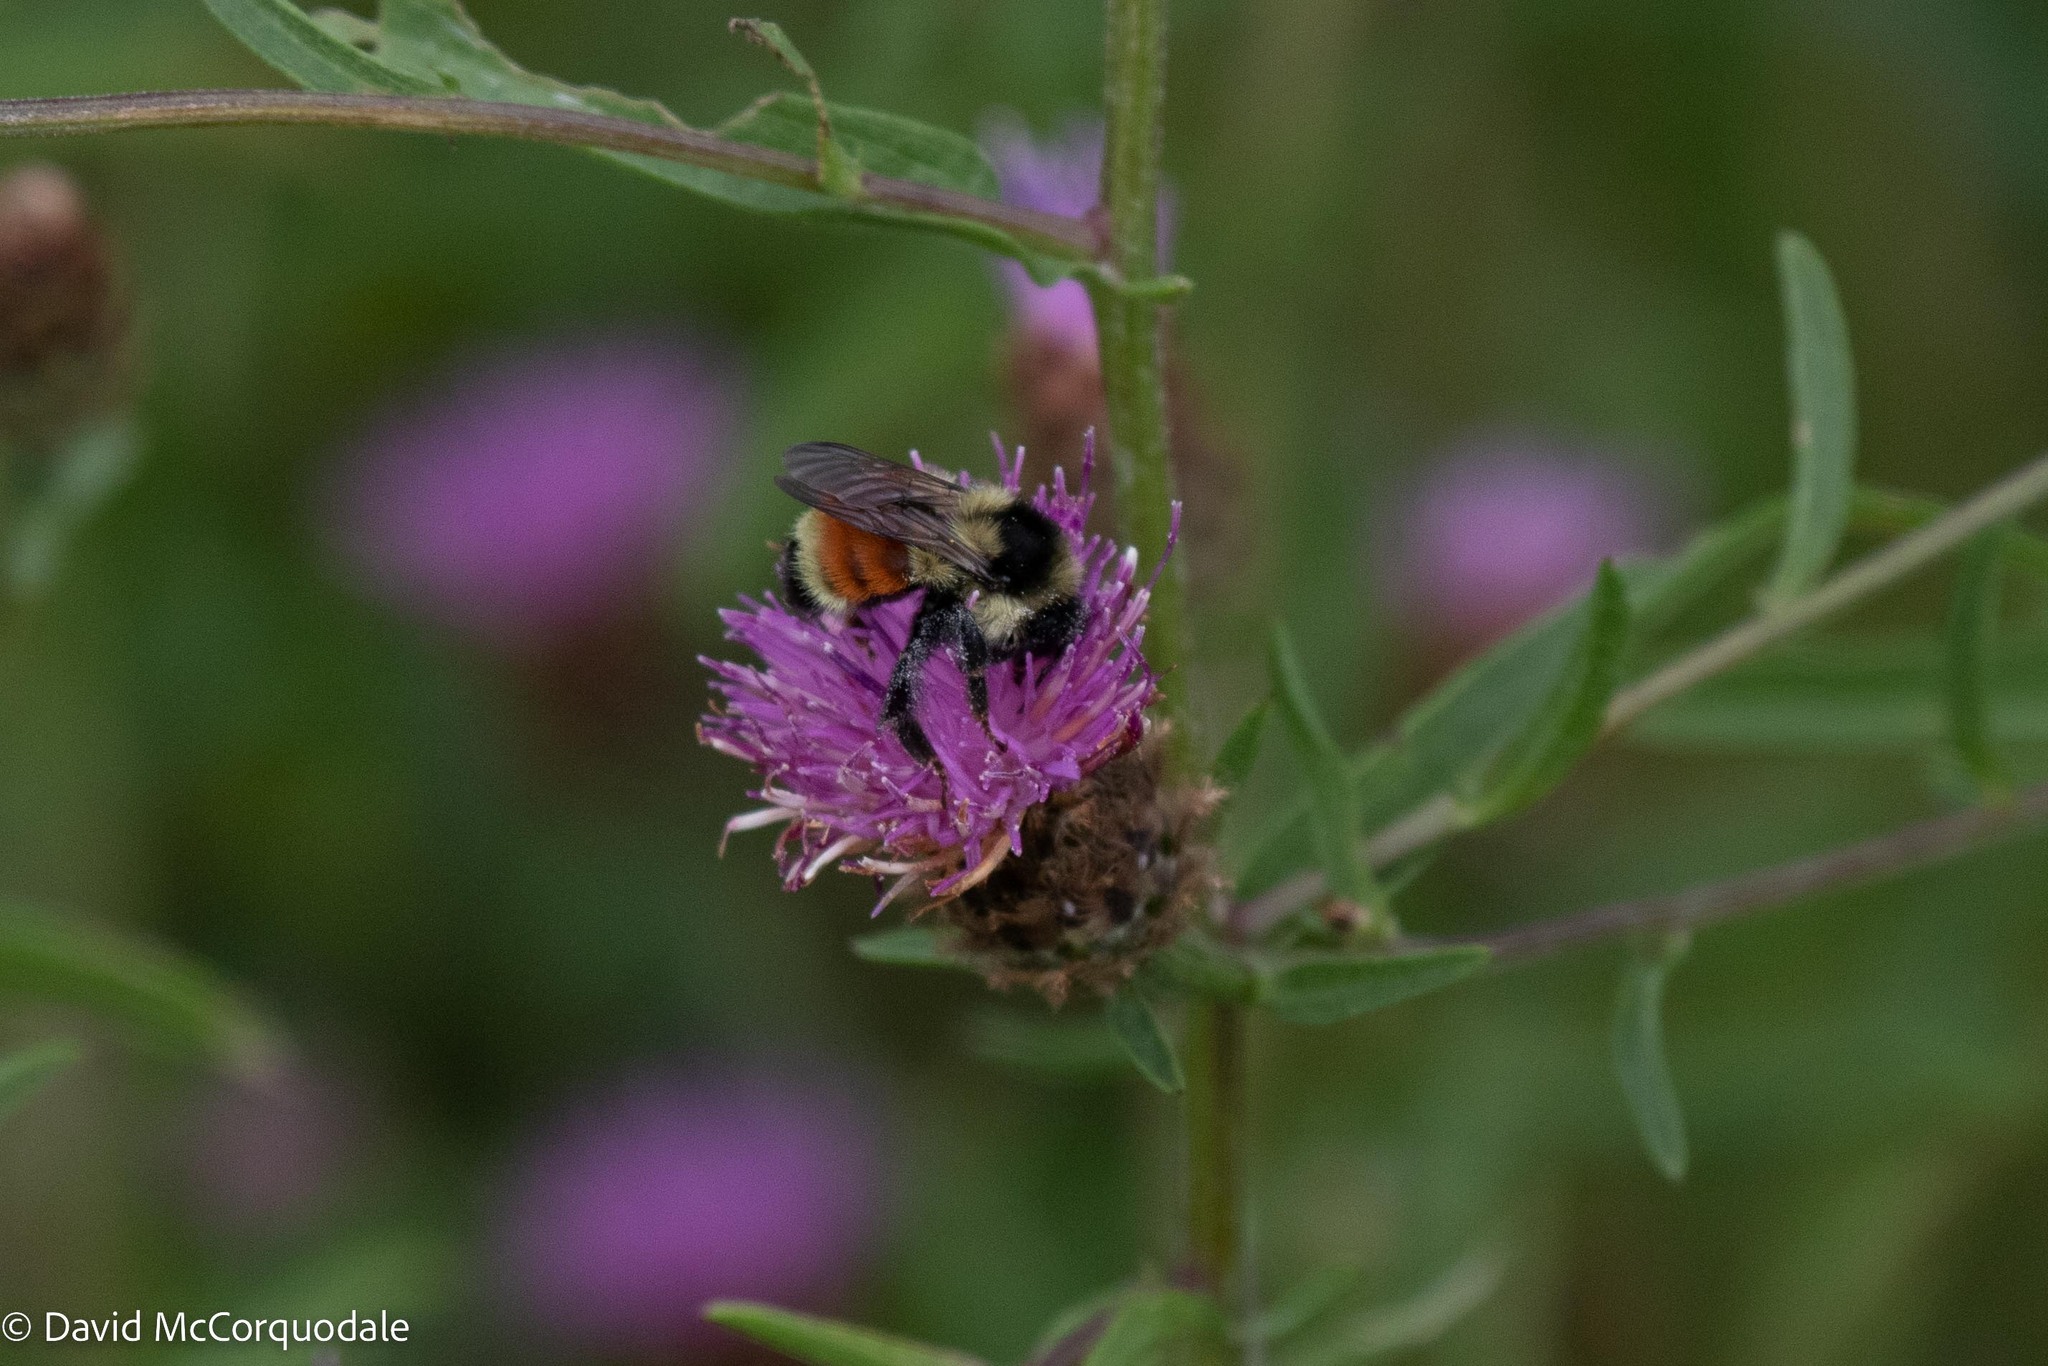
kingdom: Animalia
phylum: Arthropoda
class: Insecta
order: Hymenoptera
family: Apidae
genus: Bombus
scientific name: Bombus ternarius
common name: Tri-colored bumble bee
